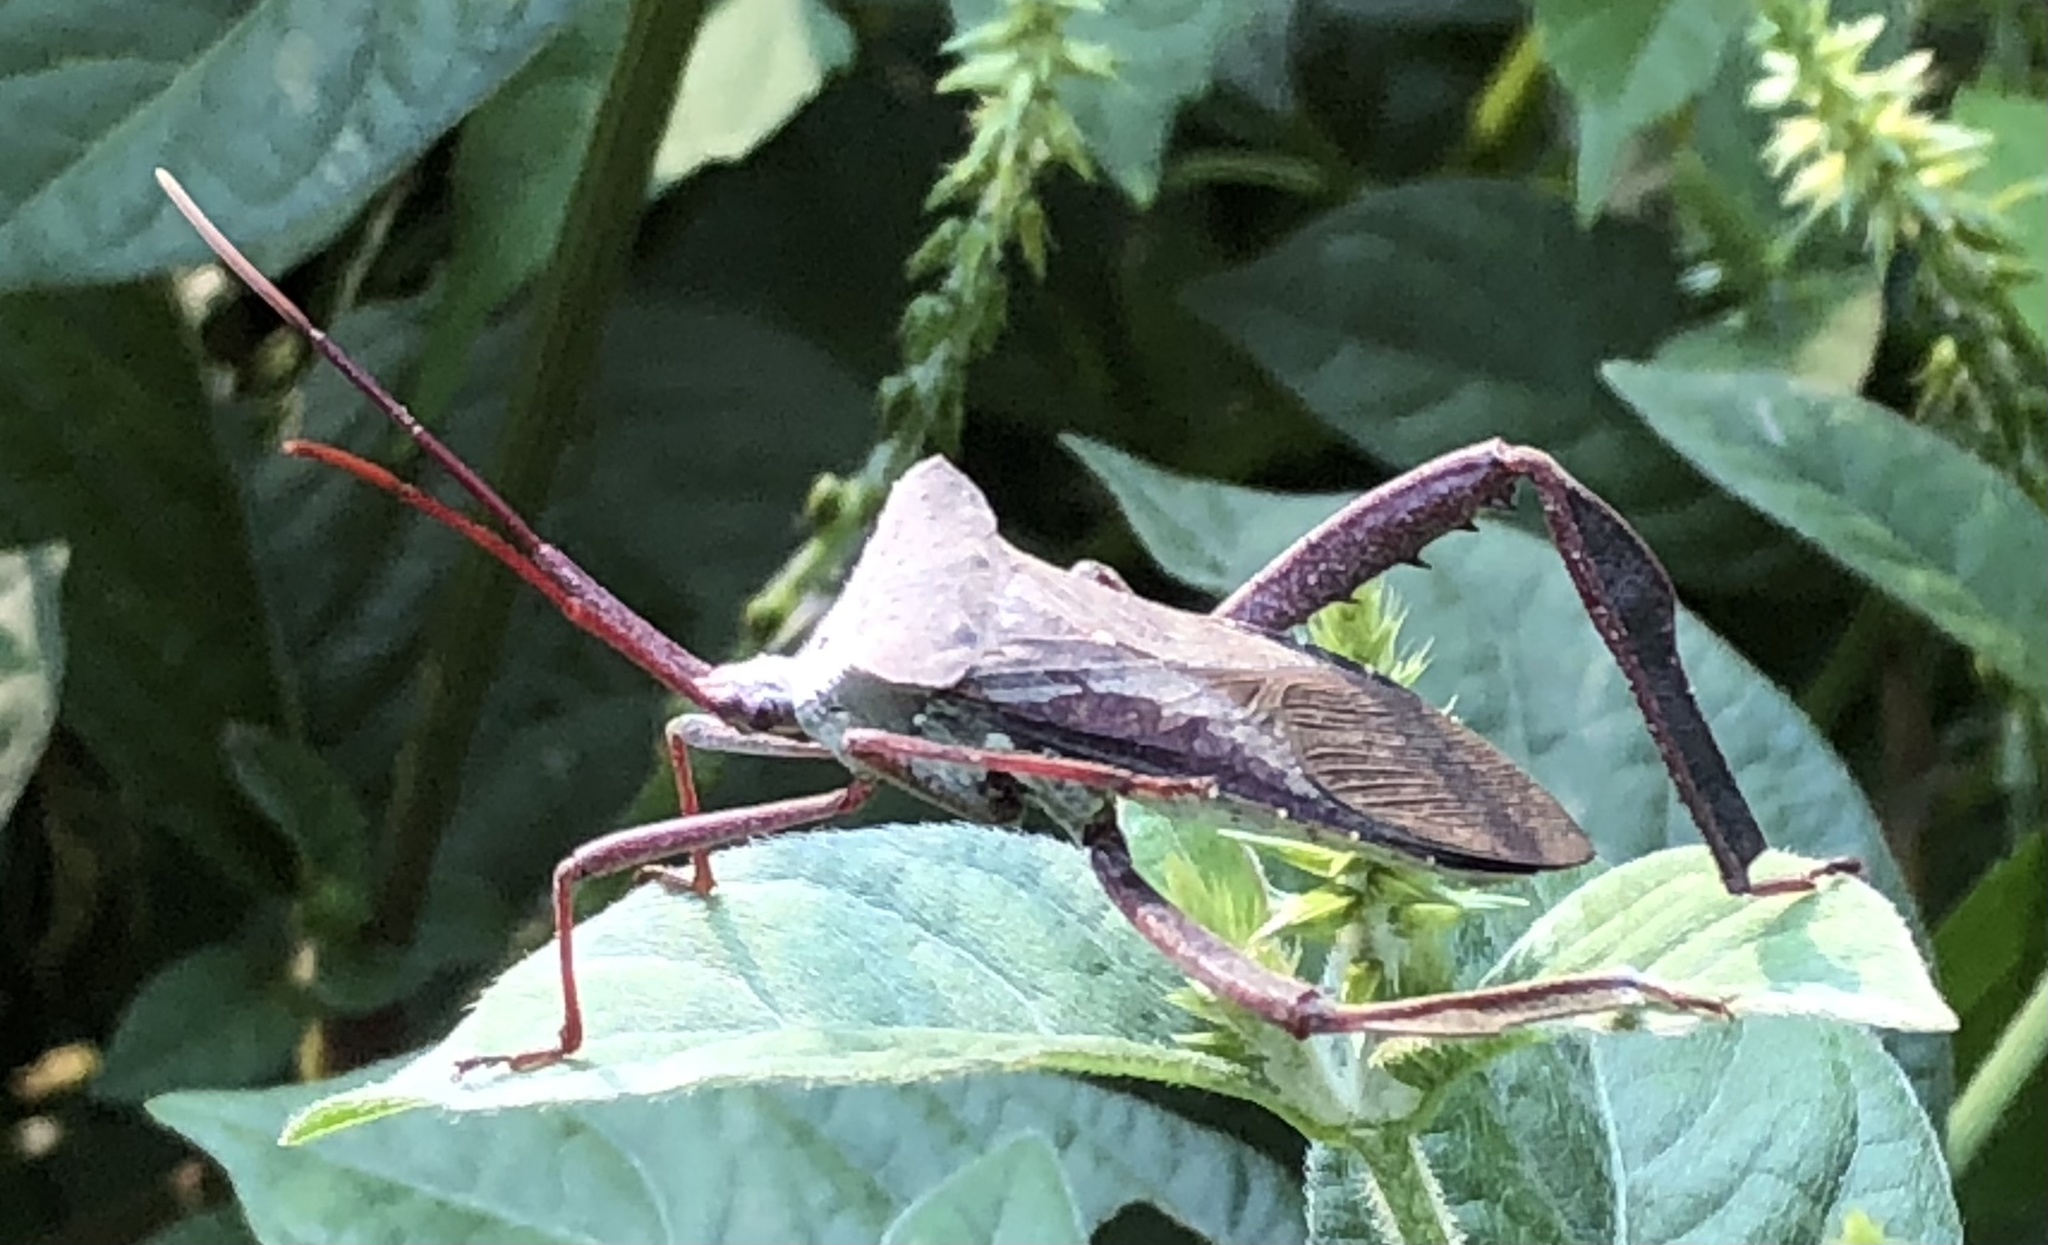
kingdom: Animalia
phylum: Arthropoda
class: Insecta
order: Hemiptera
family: Coreidae
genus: Acanthocephala
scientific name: Acanthocephala declivis
